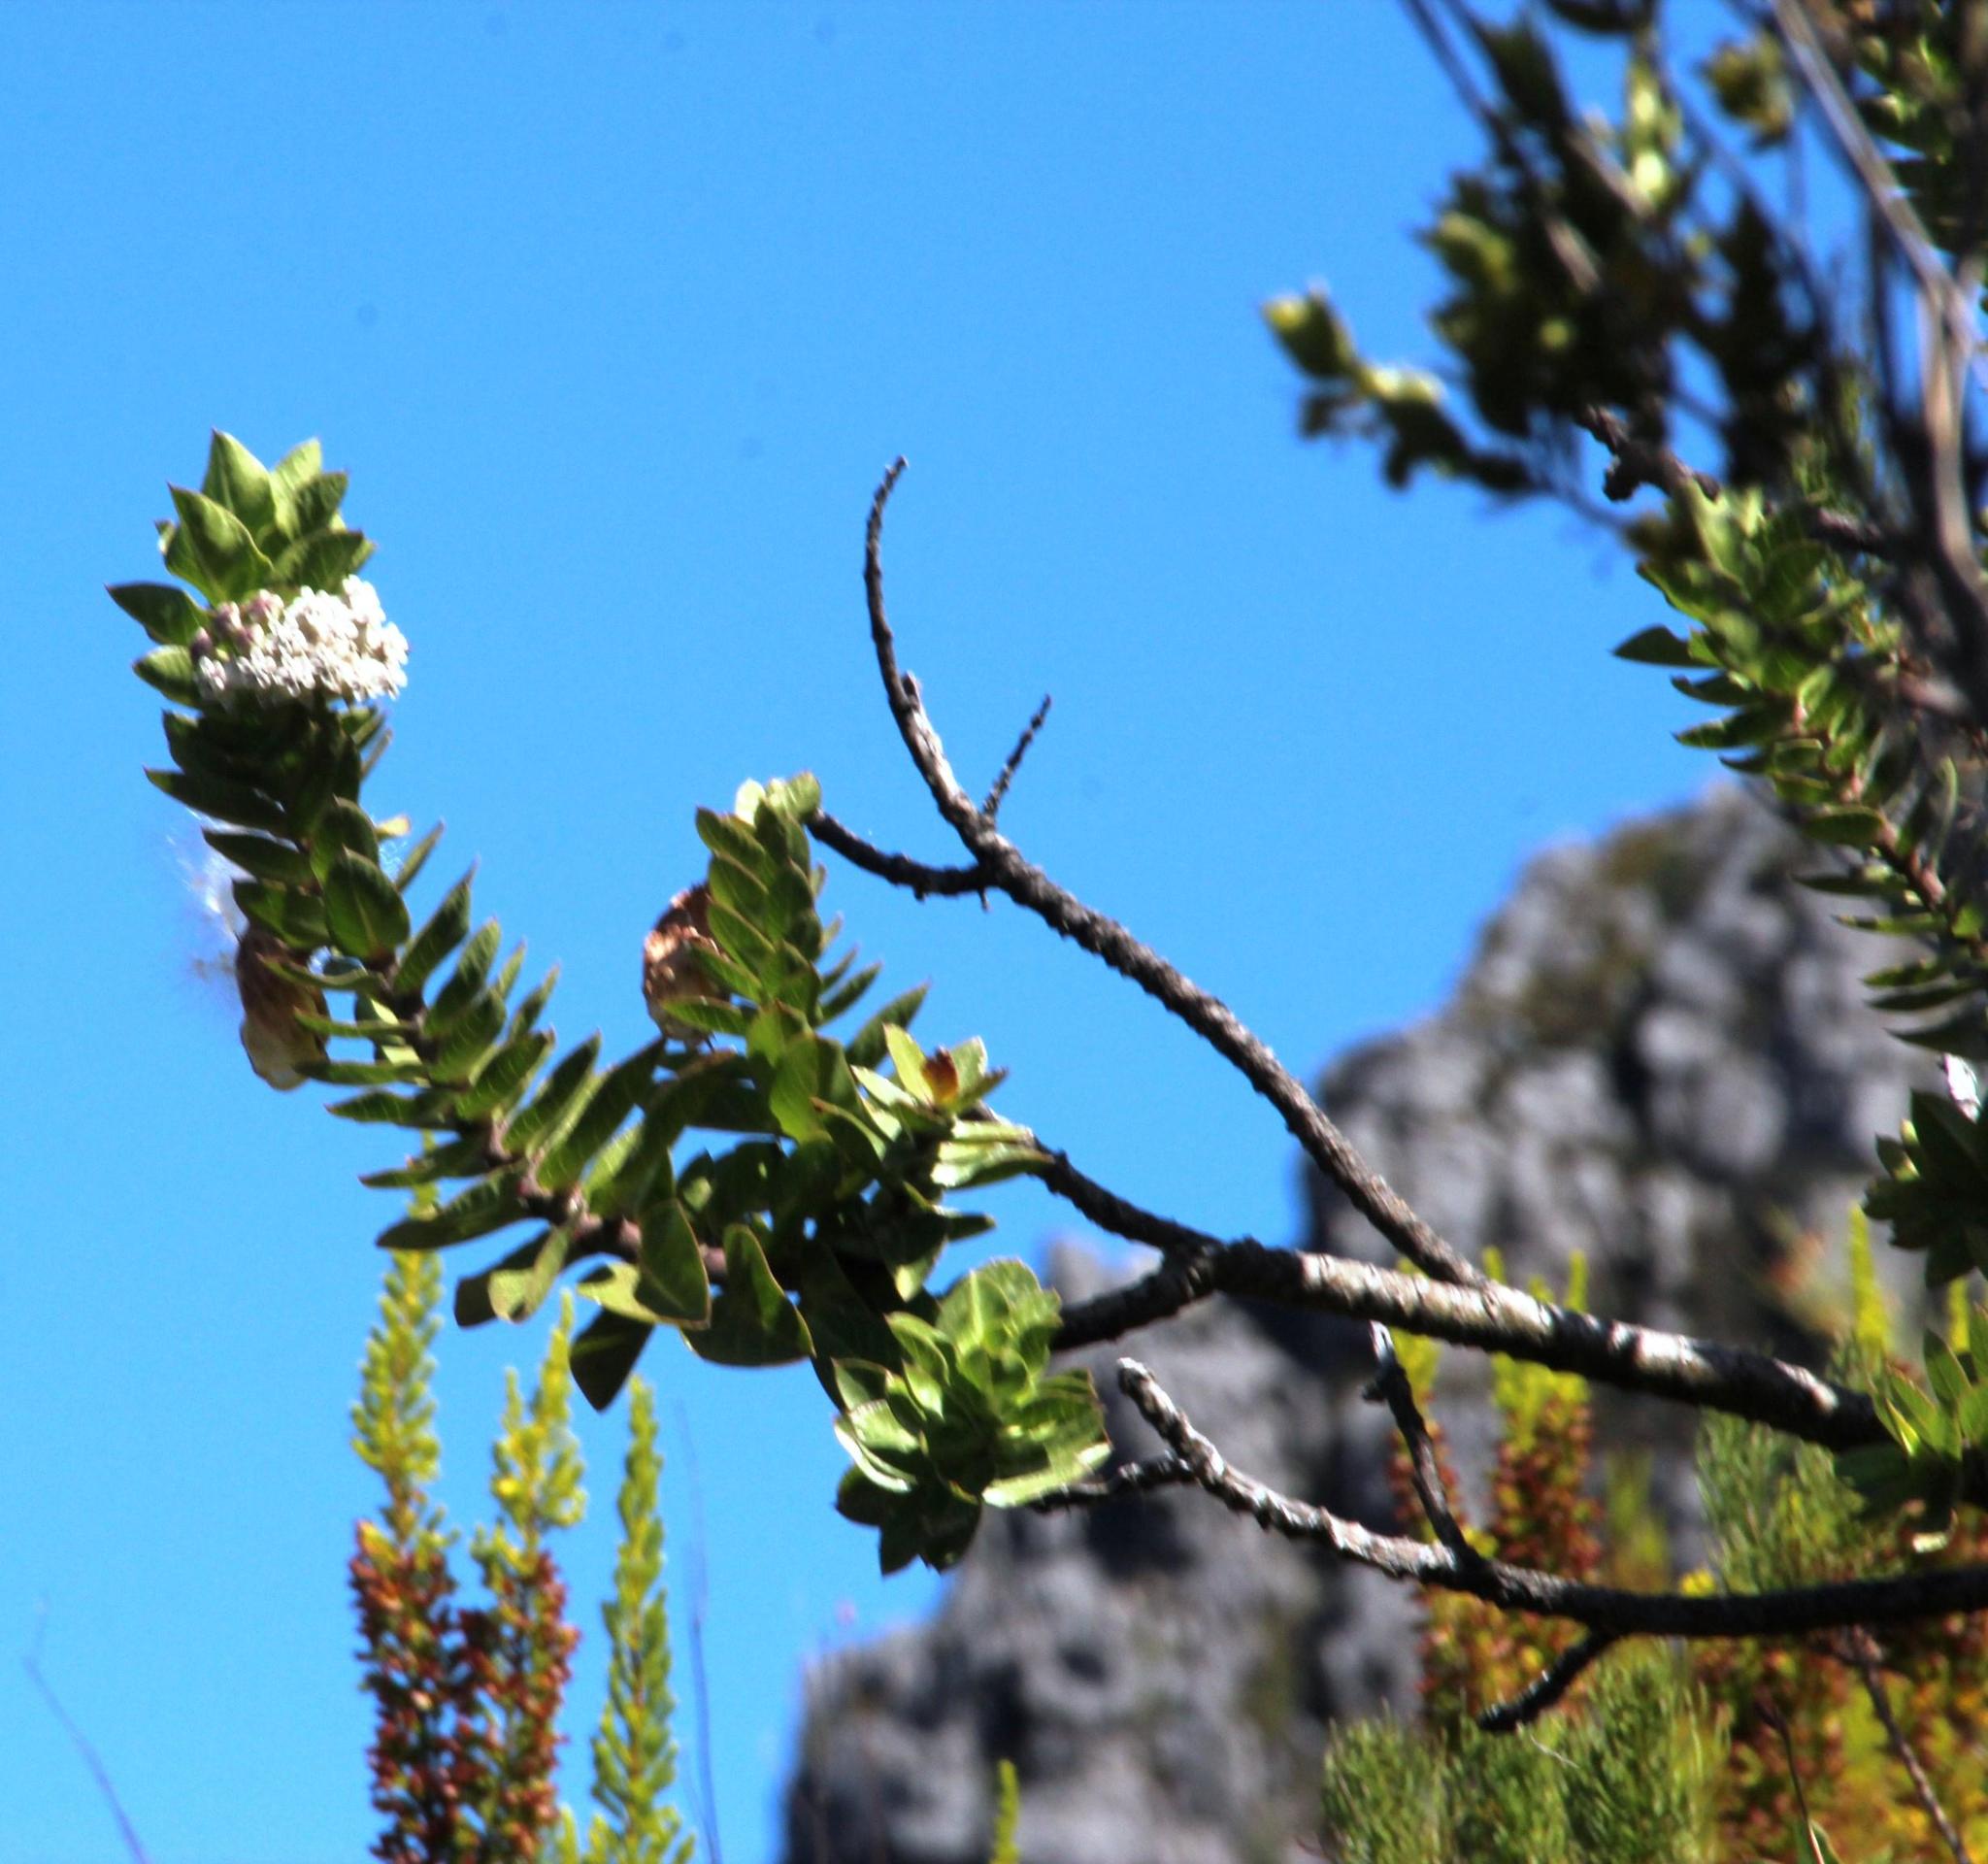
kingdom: Plantae
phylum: Tracheophyta
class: Magnoliopsida
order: Gentianales
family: Apocynaceae
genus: Gomphocarpus
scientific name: Gomphocarpus cancellatus
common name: Wild cotton
